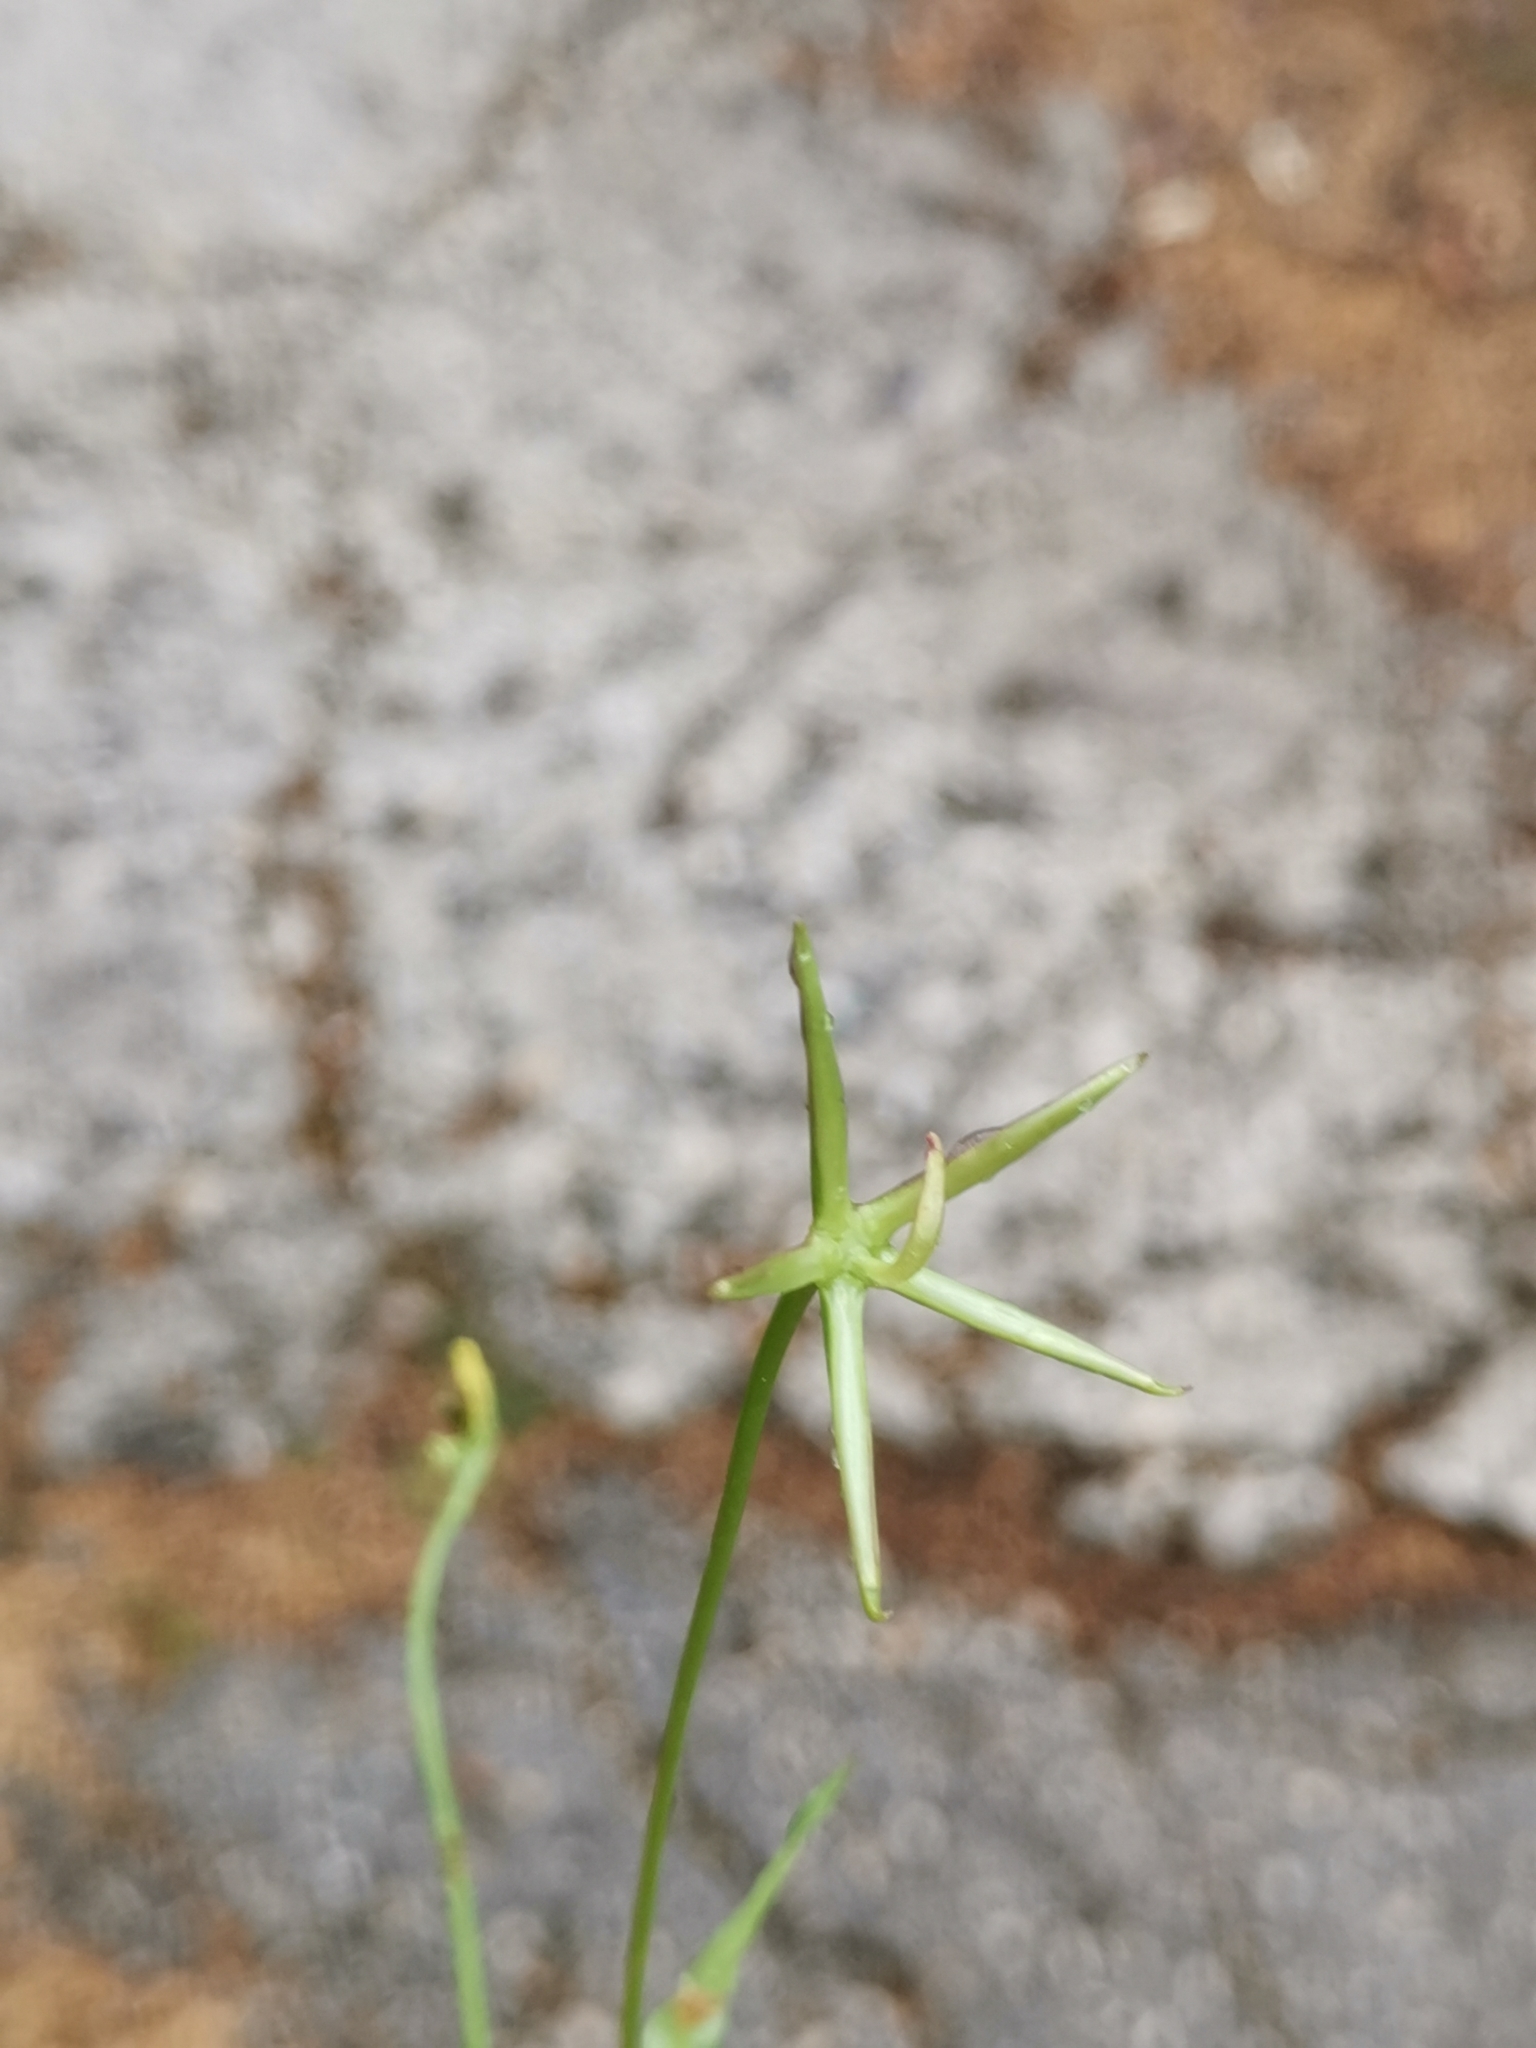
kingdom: Plantae
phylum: Tracheophyta
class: Magnoliopsida
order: Asterales
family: Asteraceae
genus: Rhagadiolus
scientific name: Rhagadiolus stellatus
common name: Star hawkbit
